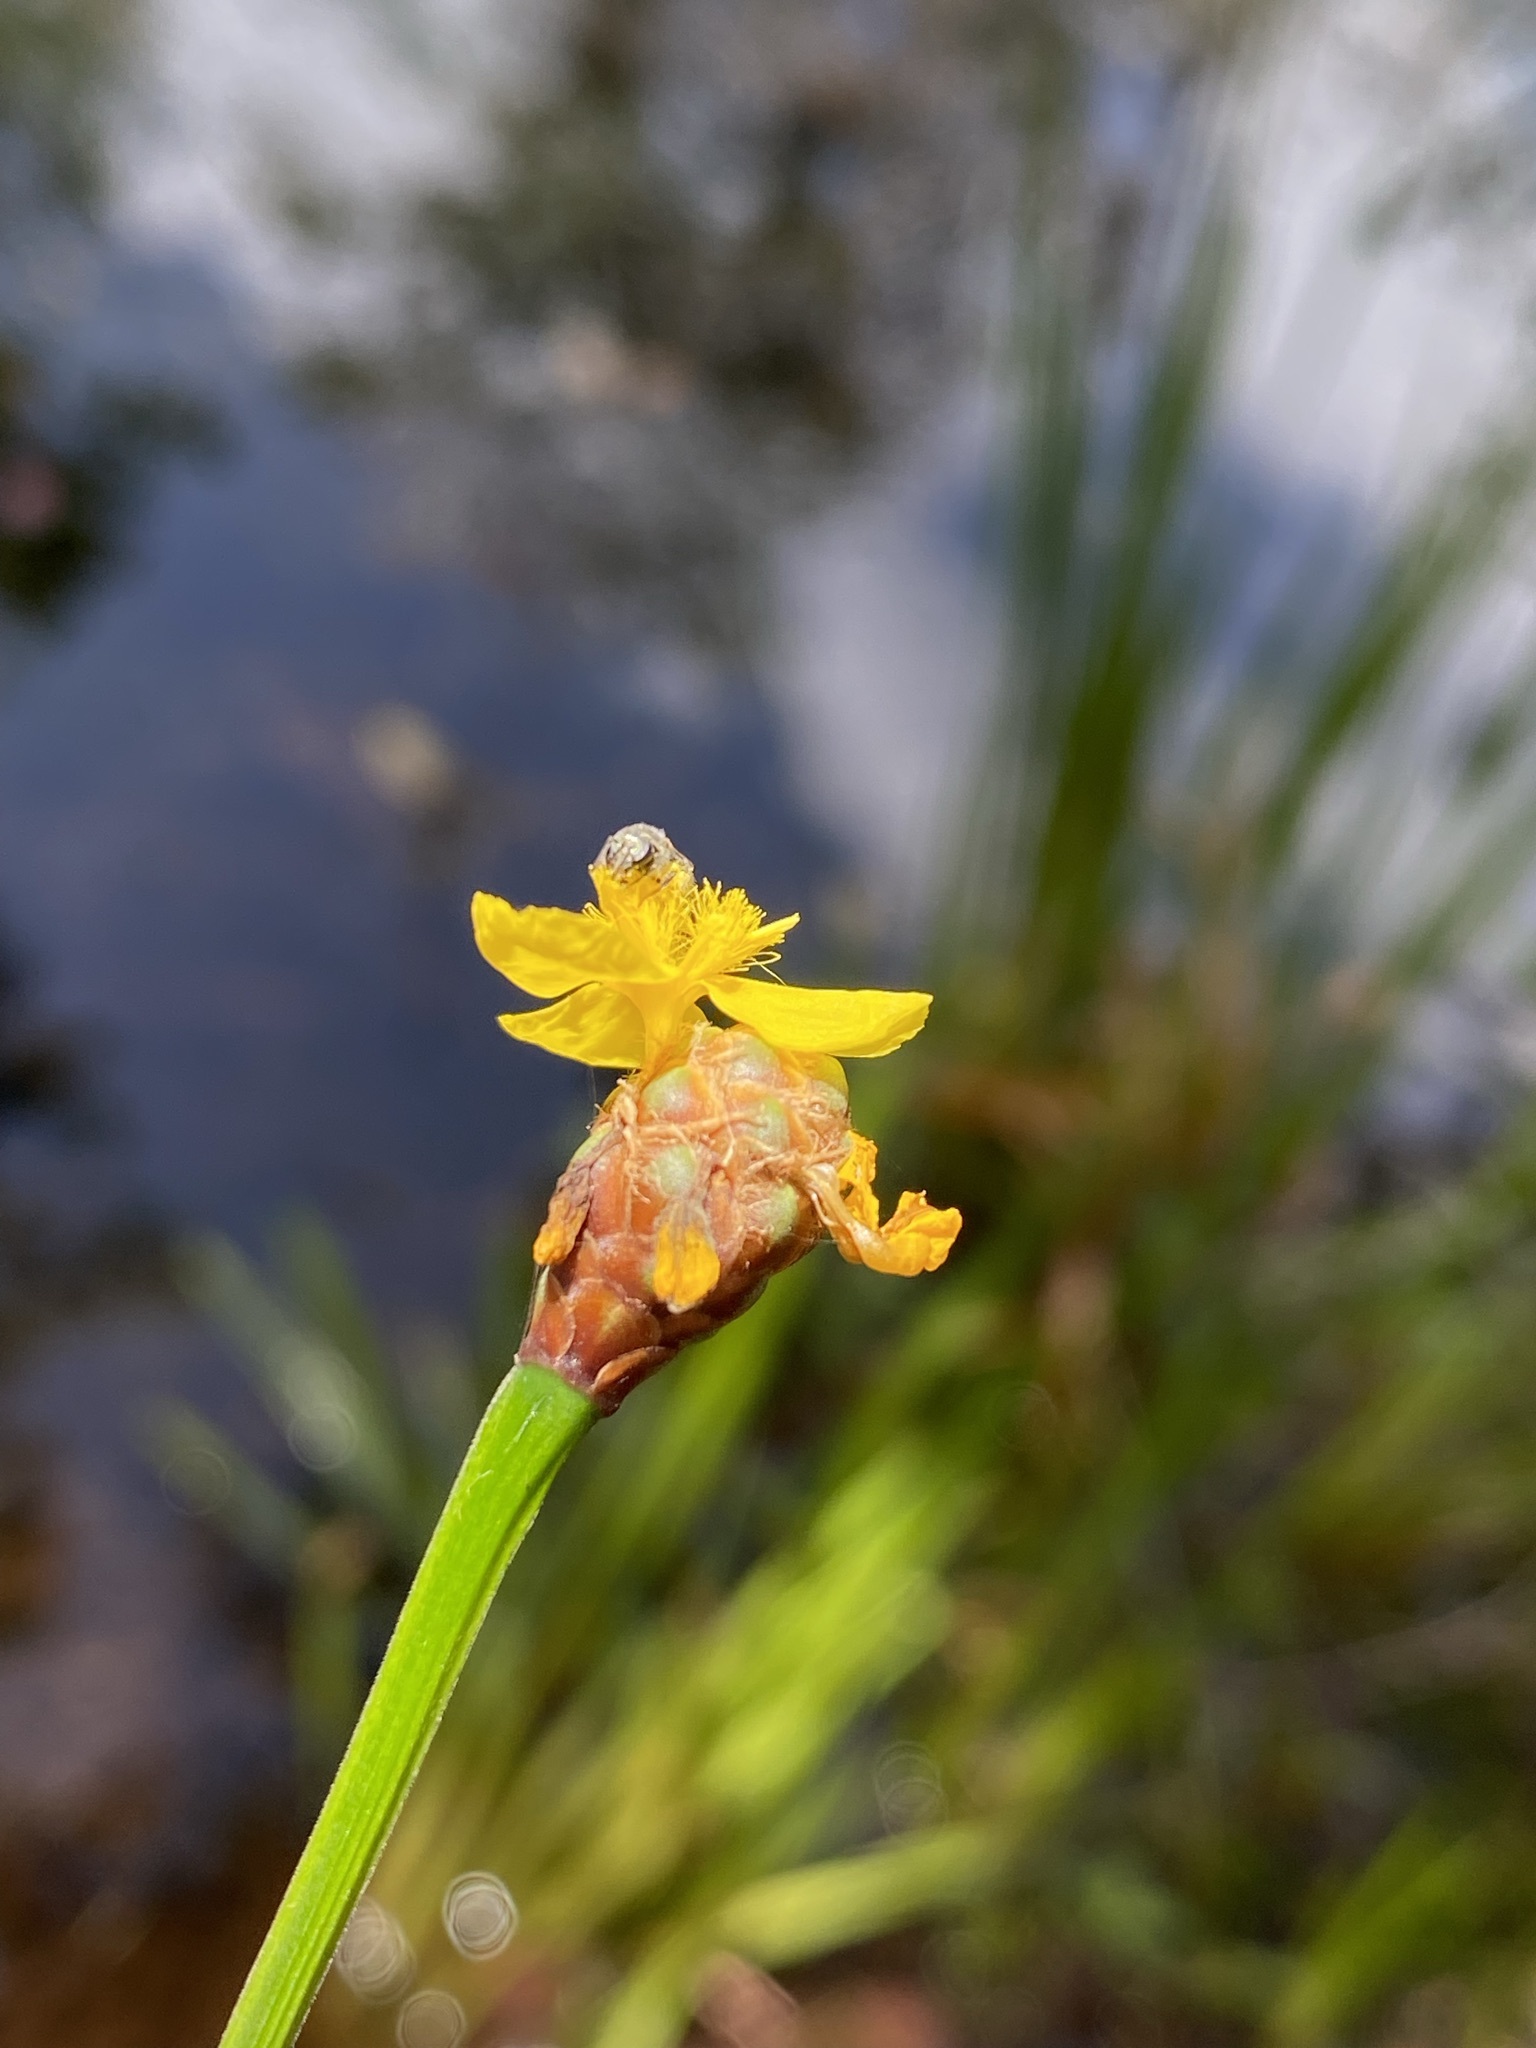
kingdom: Plantae
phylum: Tracheophyta
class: Liliopsida
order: Poales
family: Xyridaceae
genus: Xyris
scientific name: Xyris fimbriata
